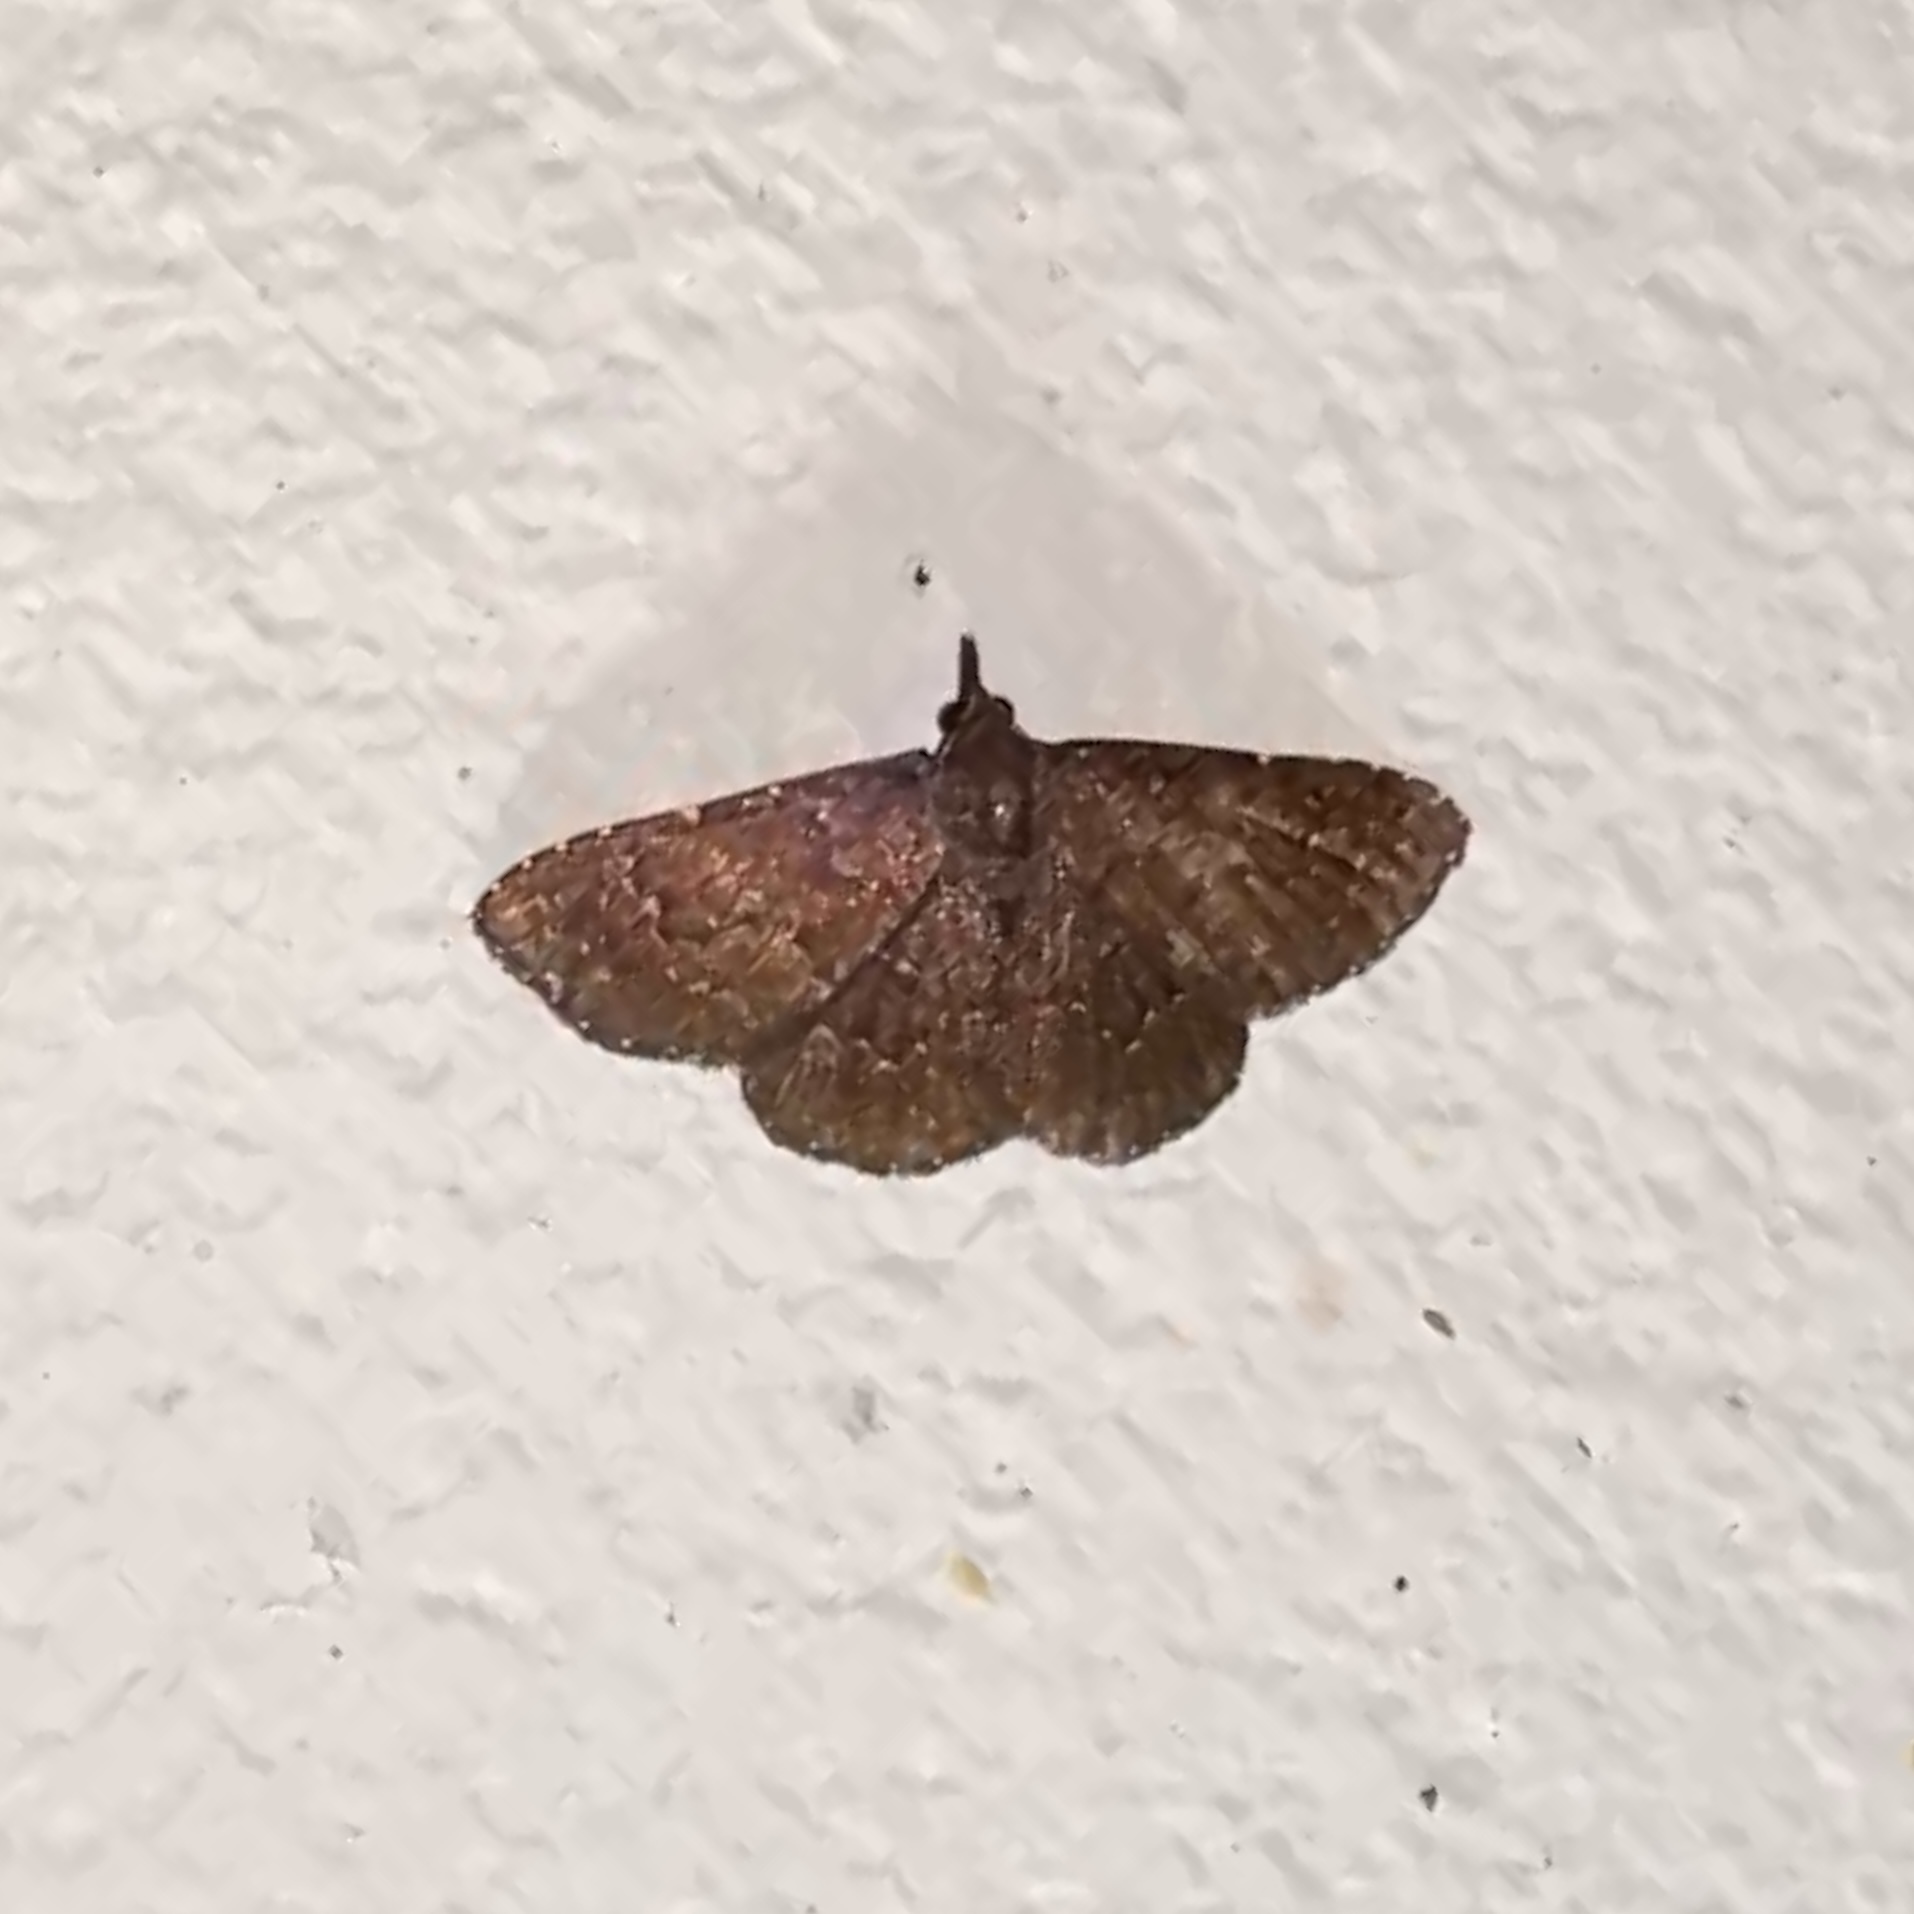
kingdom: Animalia
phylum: Arthropoda
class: Insecta
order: Lepidoptera
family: Erebidae
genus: Ostha
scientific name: Ostha coryphata
